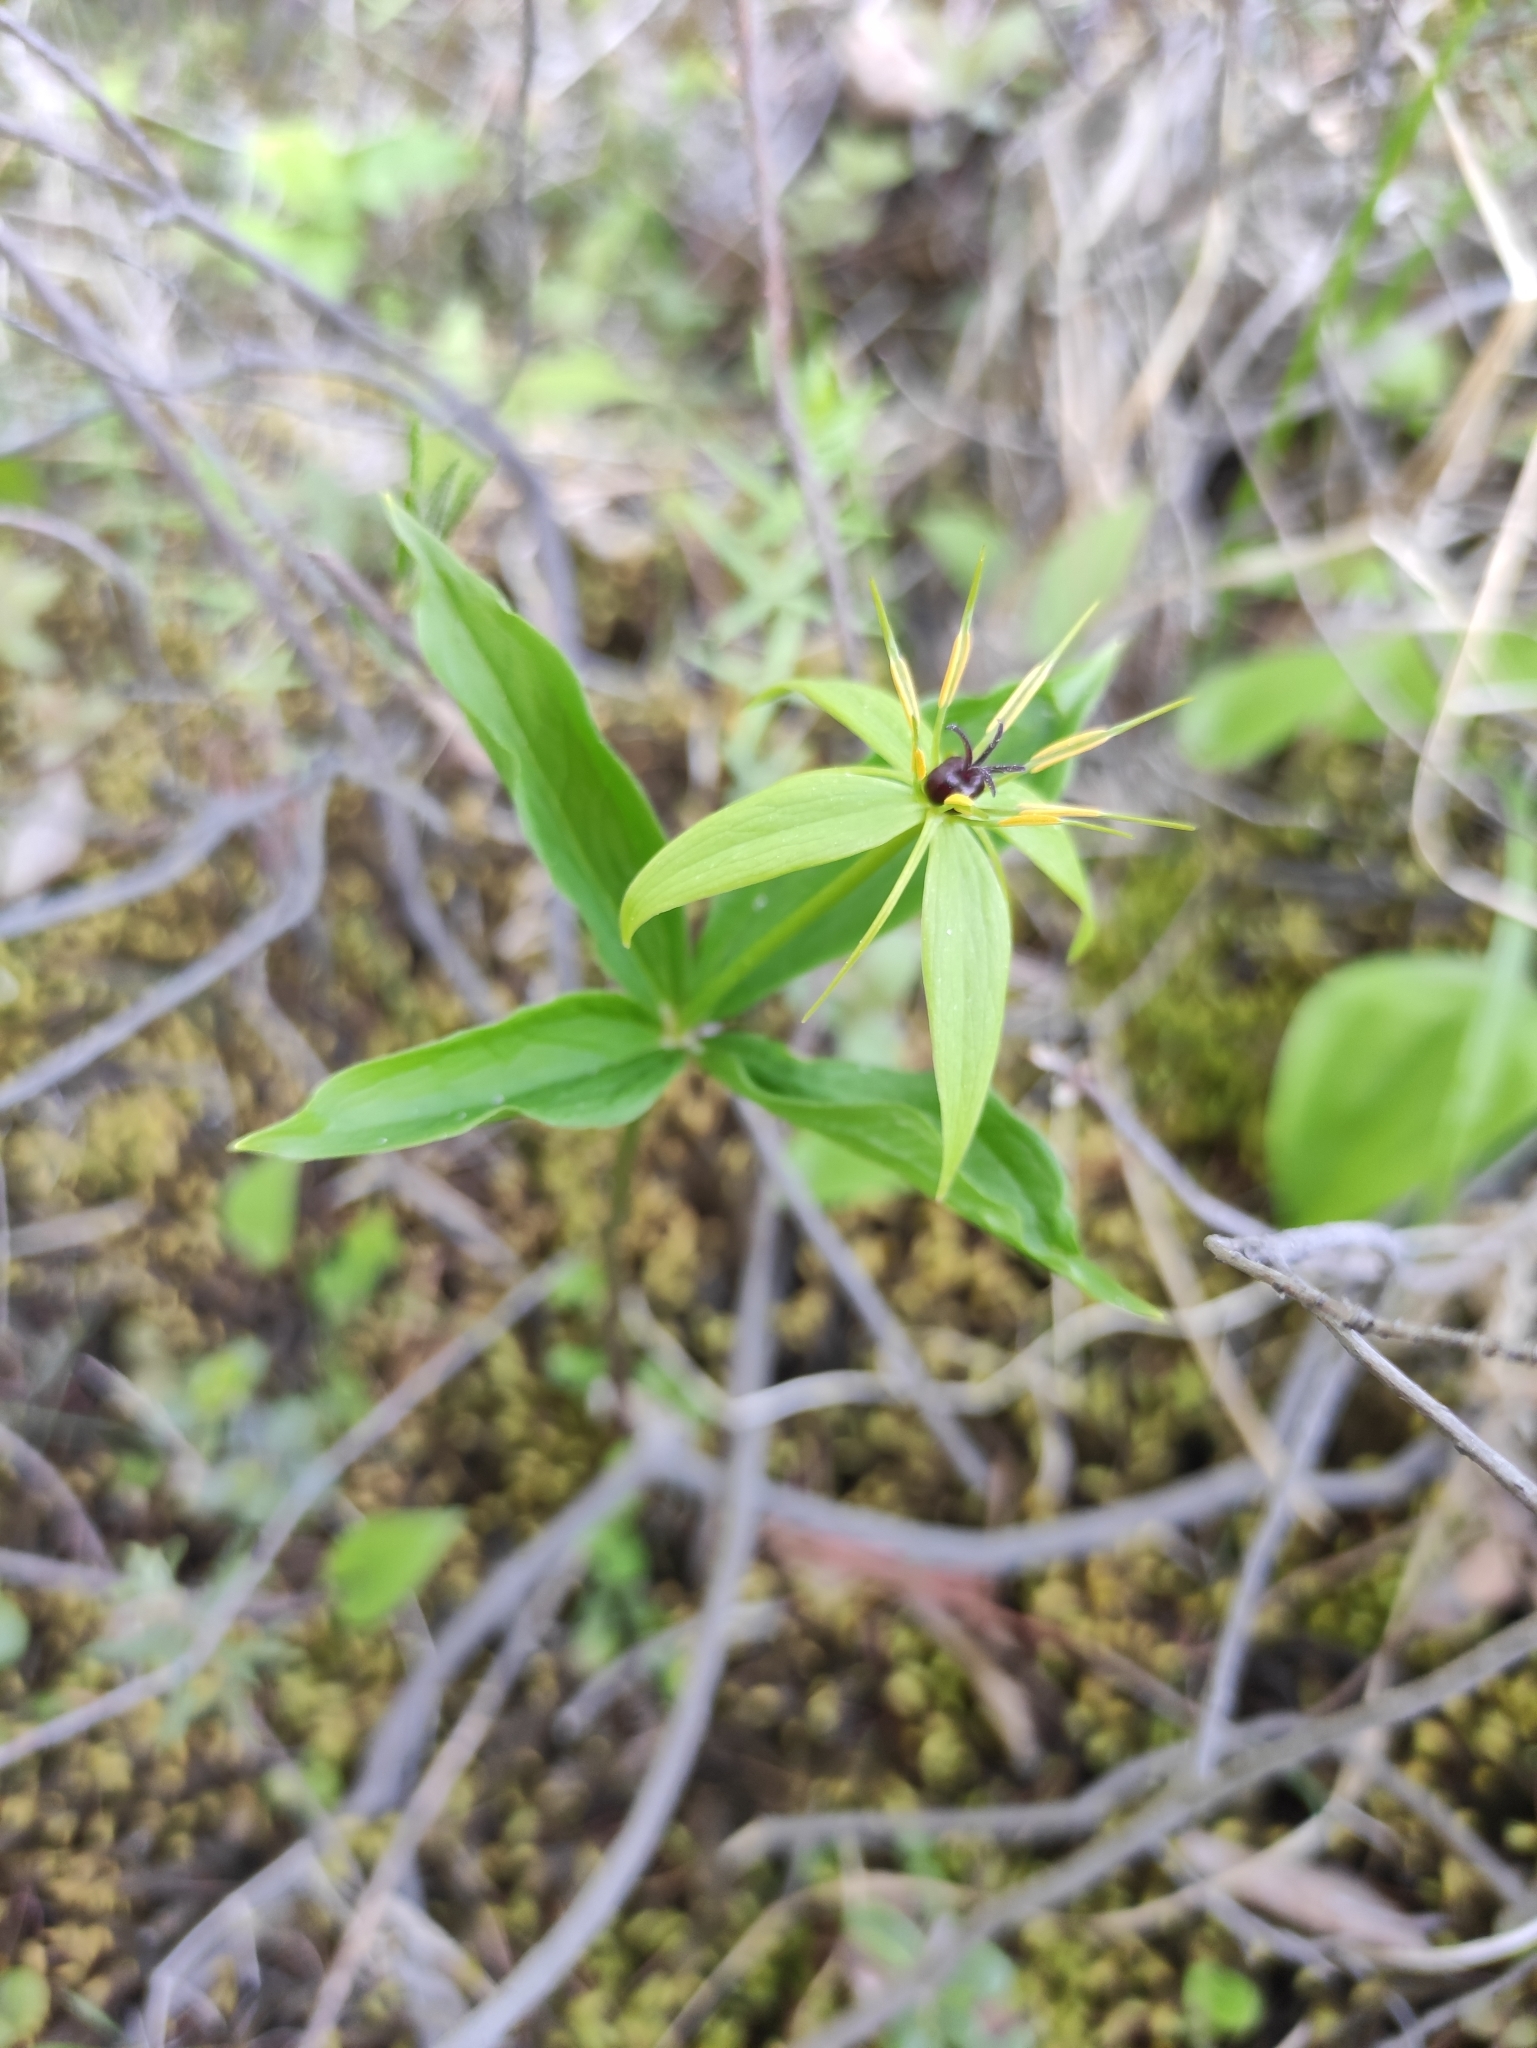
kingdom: Plantae
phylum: Tracheophyta
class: Liliopsida
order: Liliales
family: Melanthiaceae
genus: Paris
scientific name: Paris quadrifolia
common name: Herb-paris
